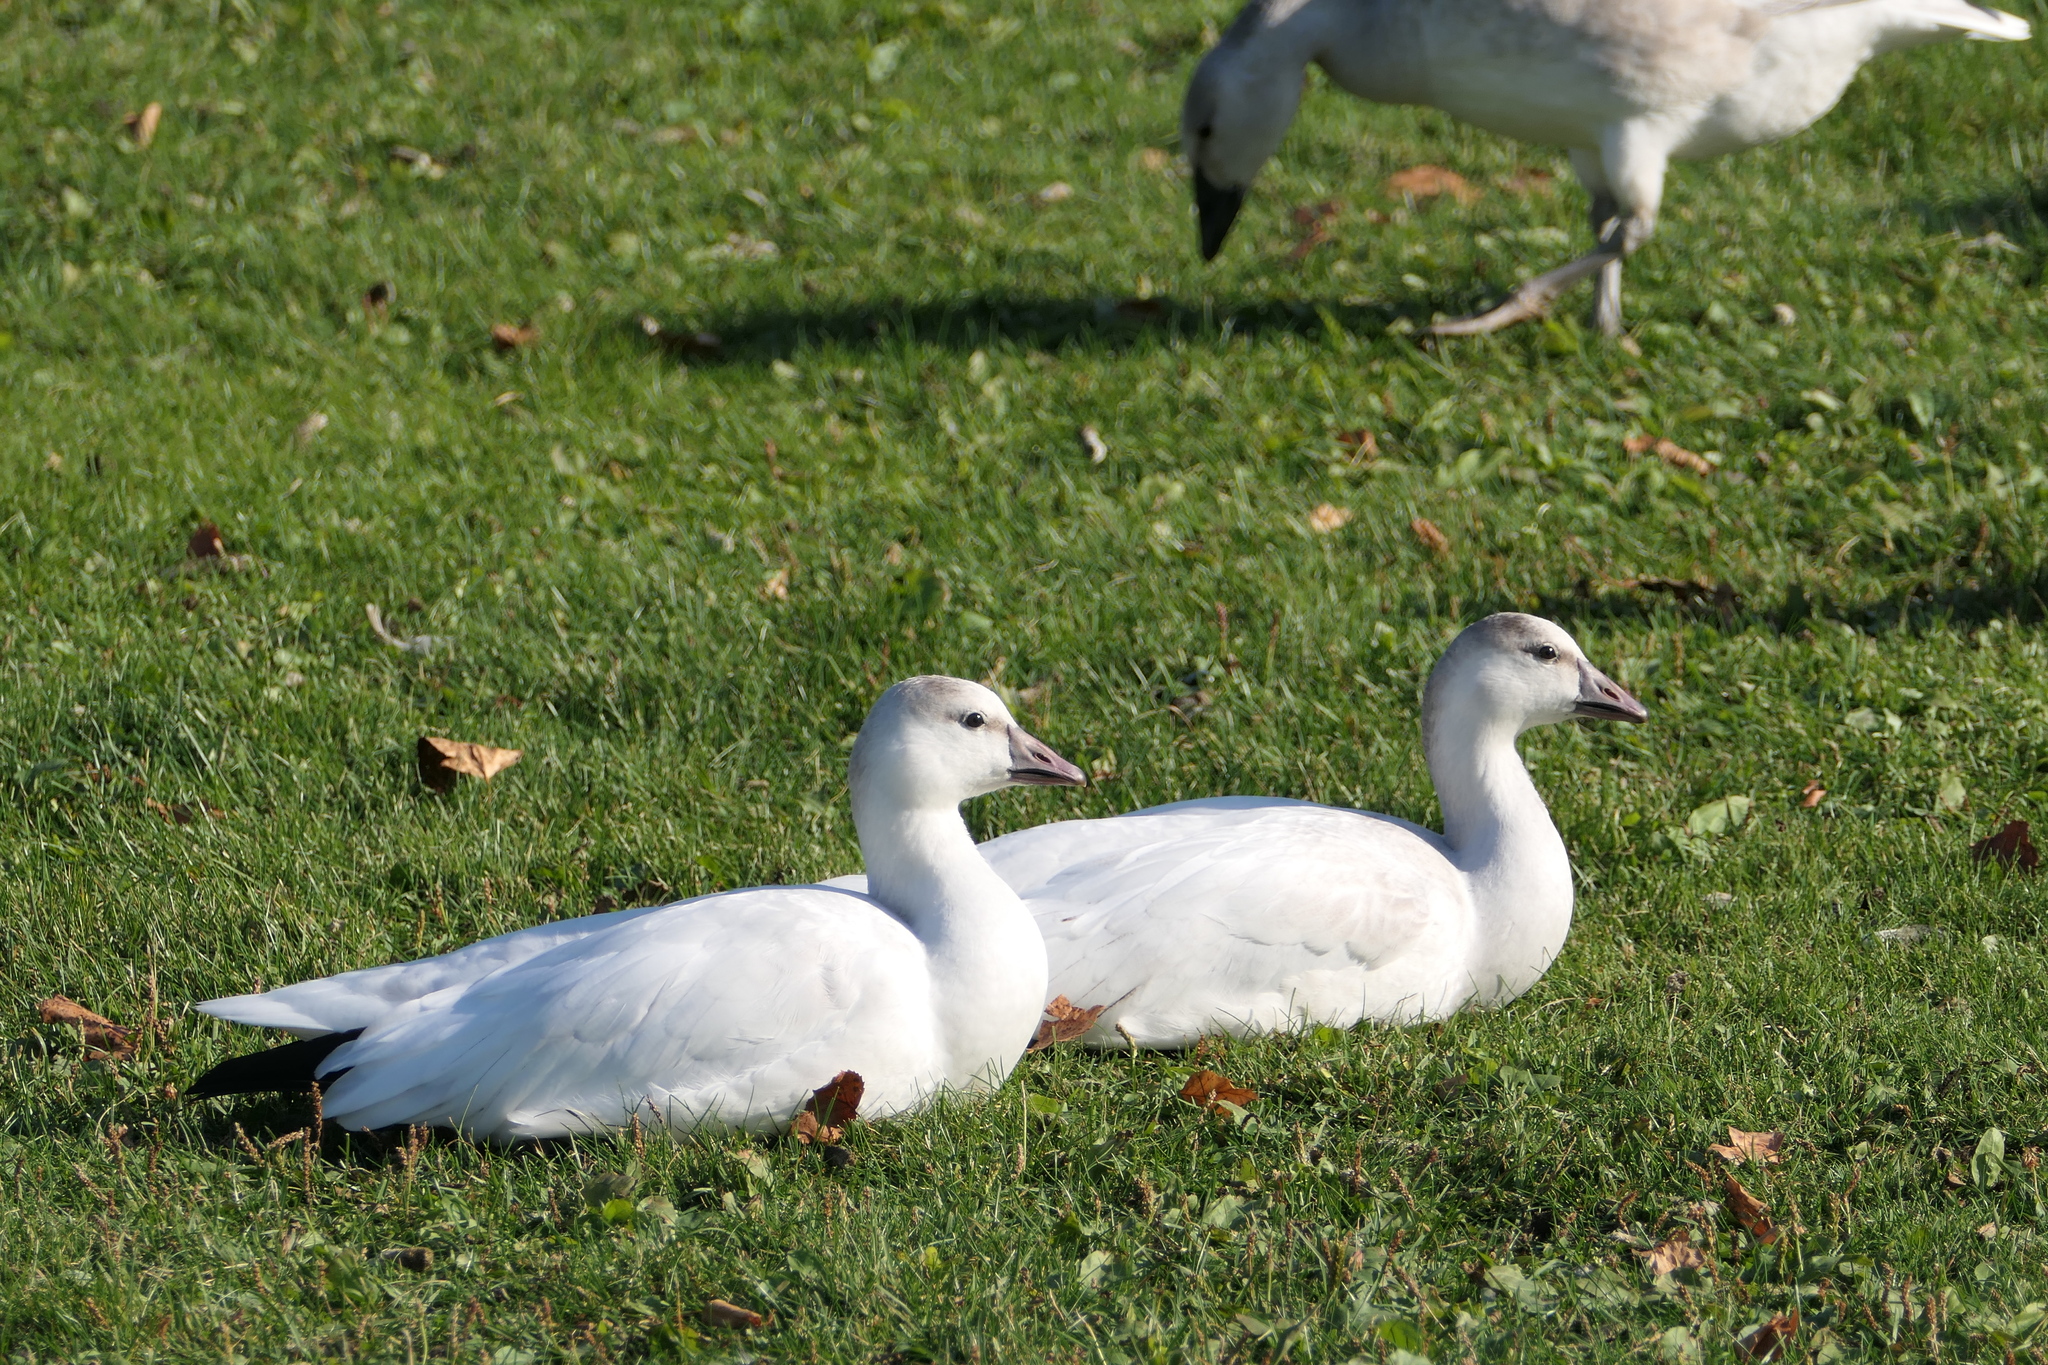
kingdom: Animalia
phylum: Chordata
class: Aves
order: Anseriformes
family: Anatidae
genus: Anser
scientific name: Anser rossii
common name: Ross's goose
